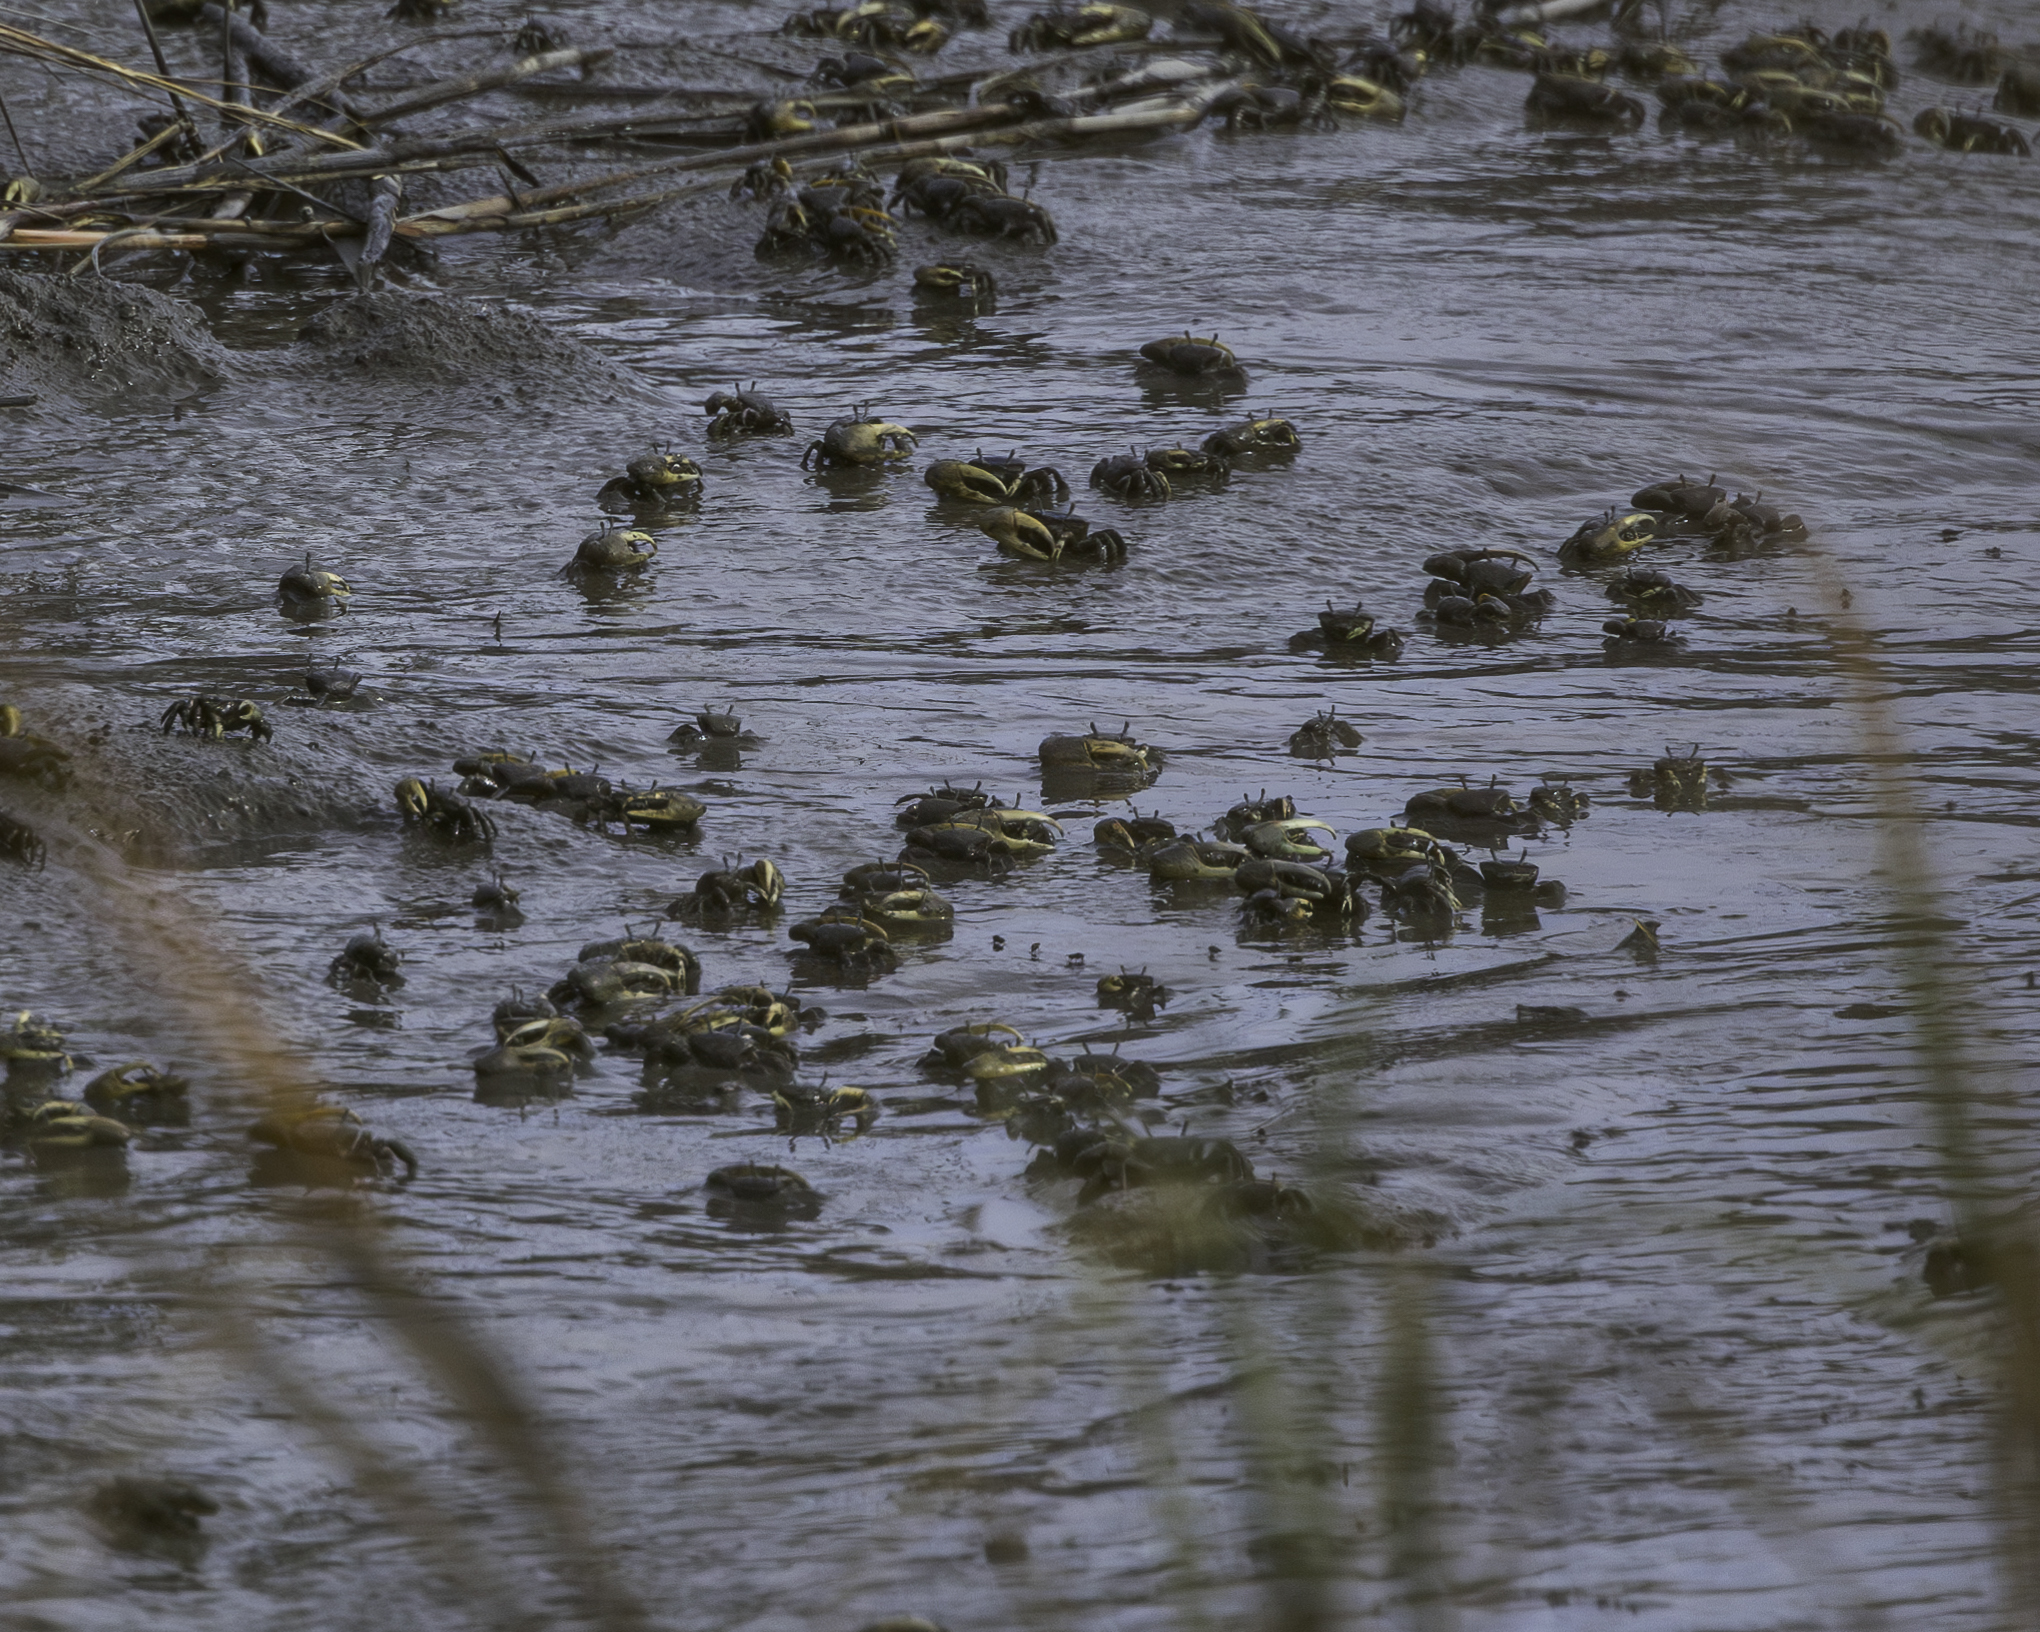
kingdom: Animalia
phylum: Arthropoda
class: Malacostraca
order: Decapoda
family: Ocypodidae
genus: Minuca
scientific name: Minuca pugnax
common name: Mud fiddler crab
